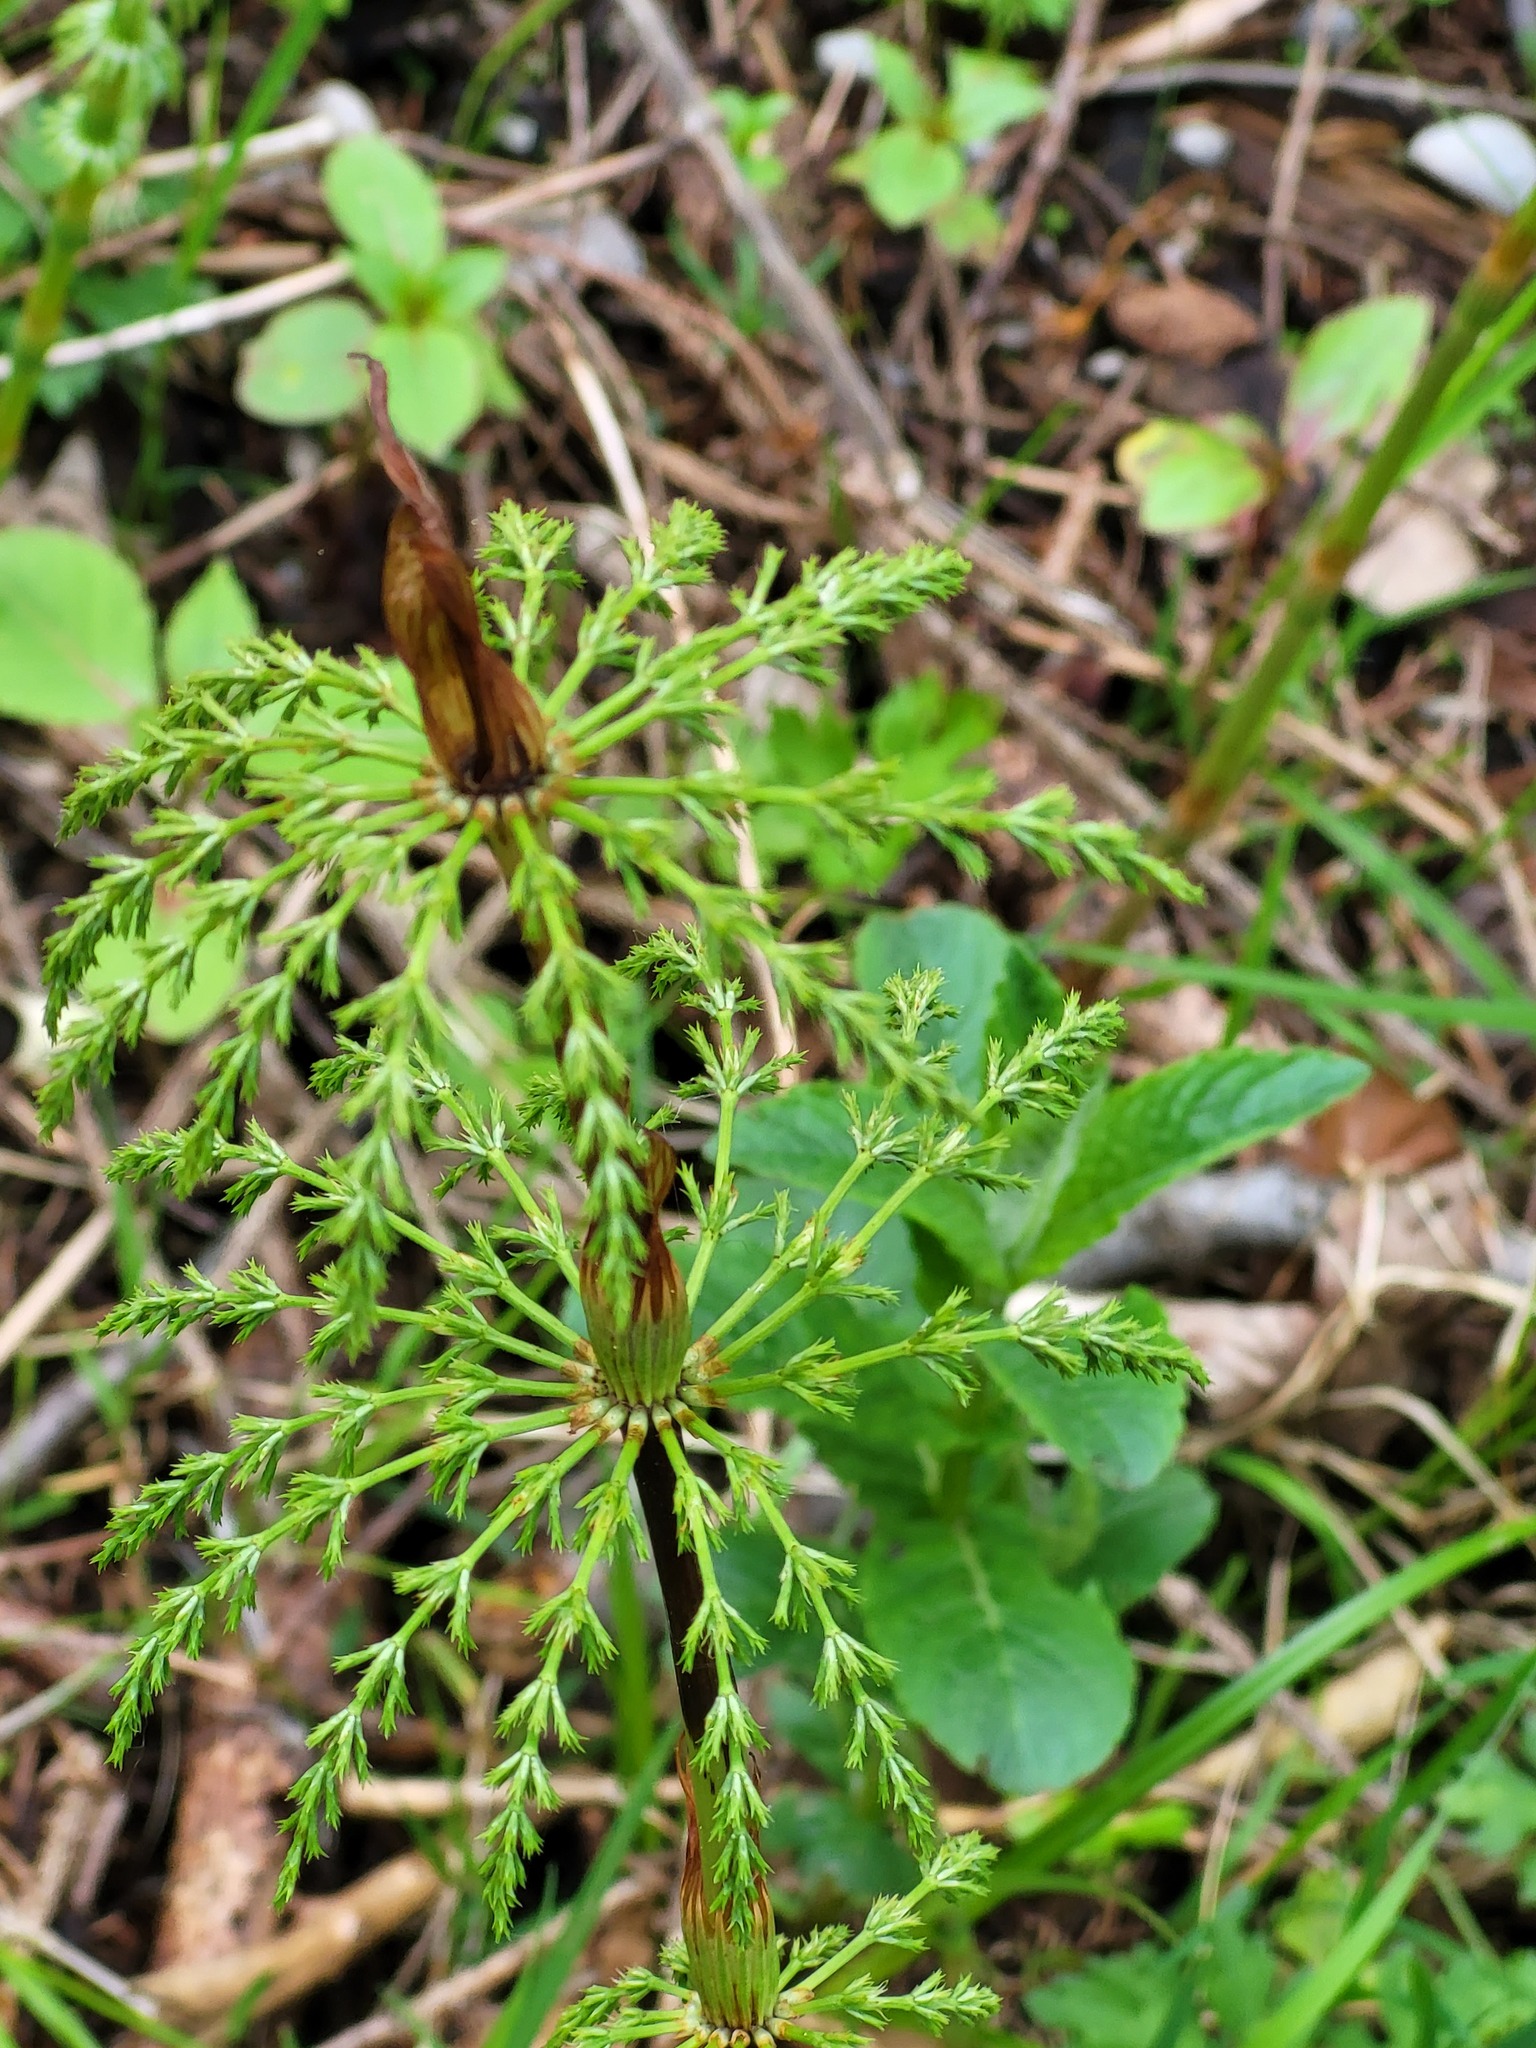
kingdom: Plantae
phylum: Tracheophyta
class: Polypodiopsida
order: Equisetales
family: Equisetaceae
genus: Equisetum
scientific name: Equisetum sylvaticum
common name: Wood horsetail
